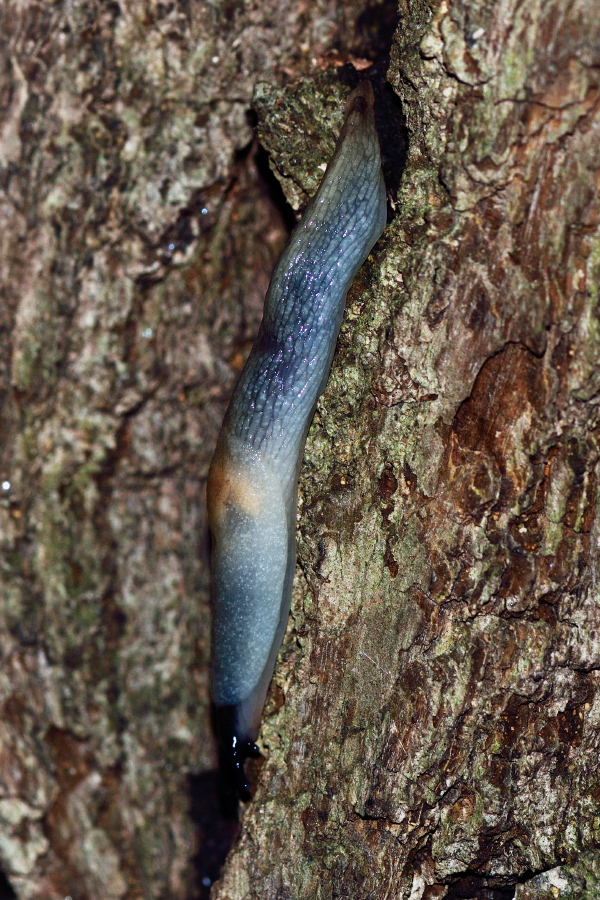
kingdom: Animalia
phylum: Mollusca
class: Gastropoda
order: Stylommatophora
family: Agriolimacidae
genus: Krynickillus
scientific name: Krynickillus melanocephalus
